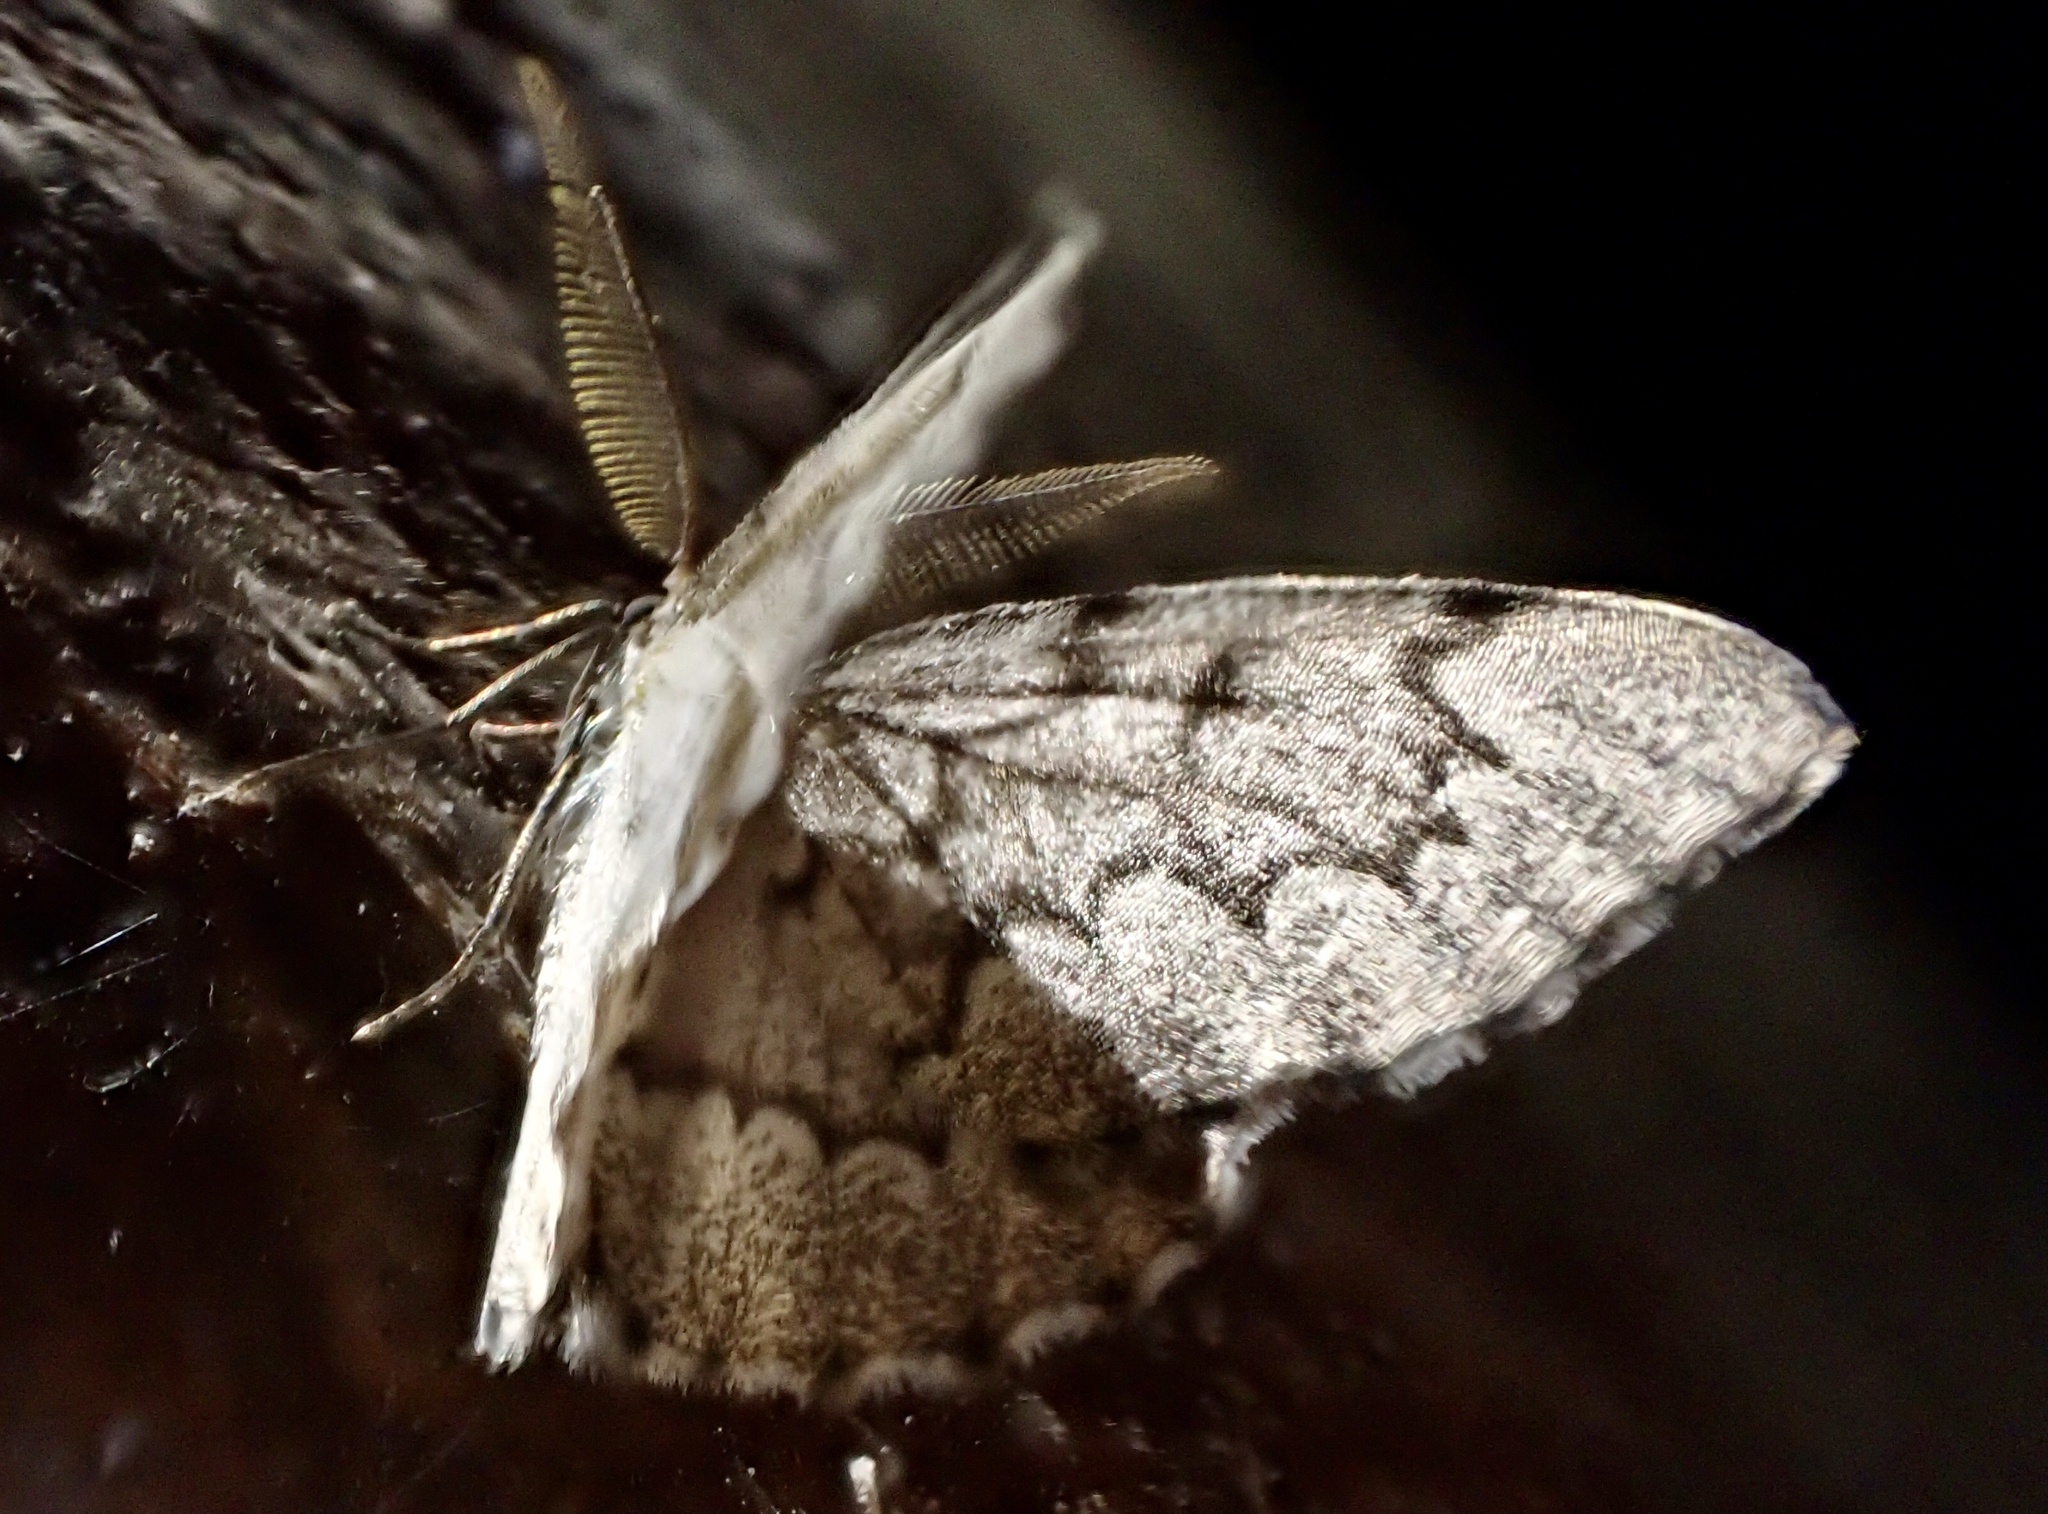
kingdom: Animalia
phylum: Arthropoda
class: Insecta
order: Lepidoptera
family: Geometridae
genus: Nepytia
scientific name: Nepytia canosaria
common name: False hemlock looper
